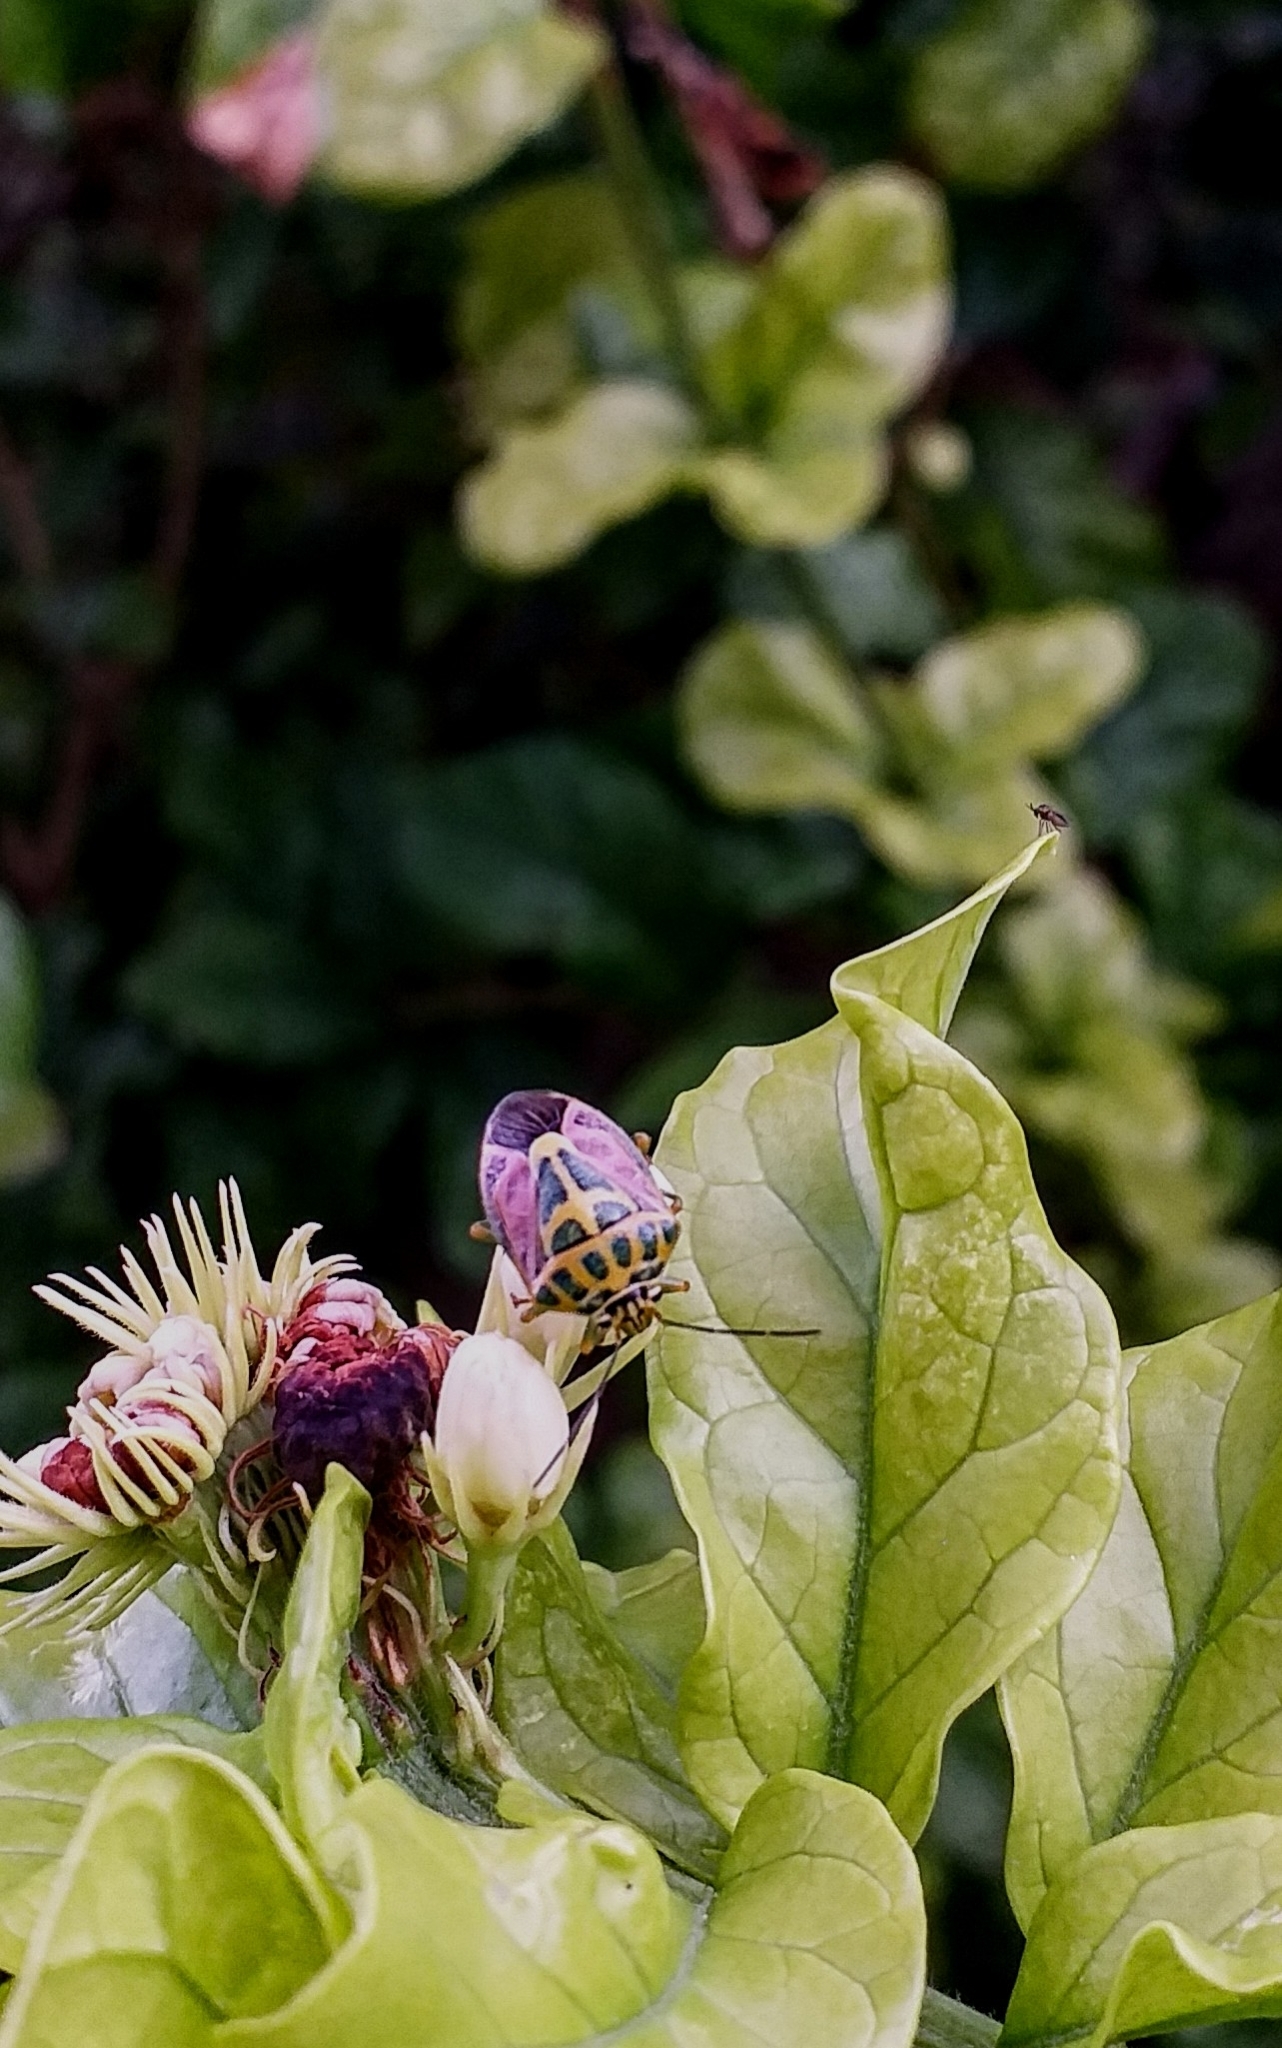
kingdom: Animalia
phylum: Arthropoda
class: Insecta
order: Hemiptera
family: Pentatomidae
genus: Antestiopsis
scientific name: Antestiopsis cruciata
